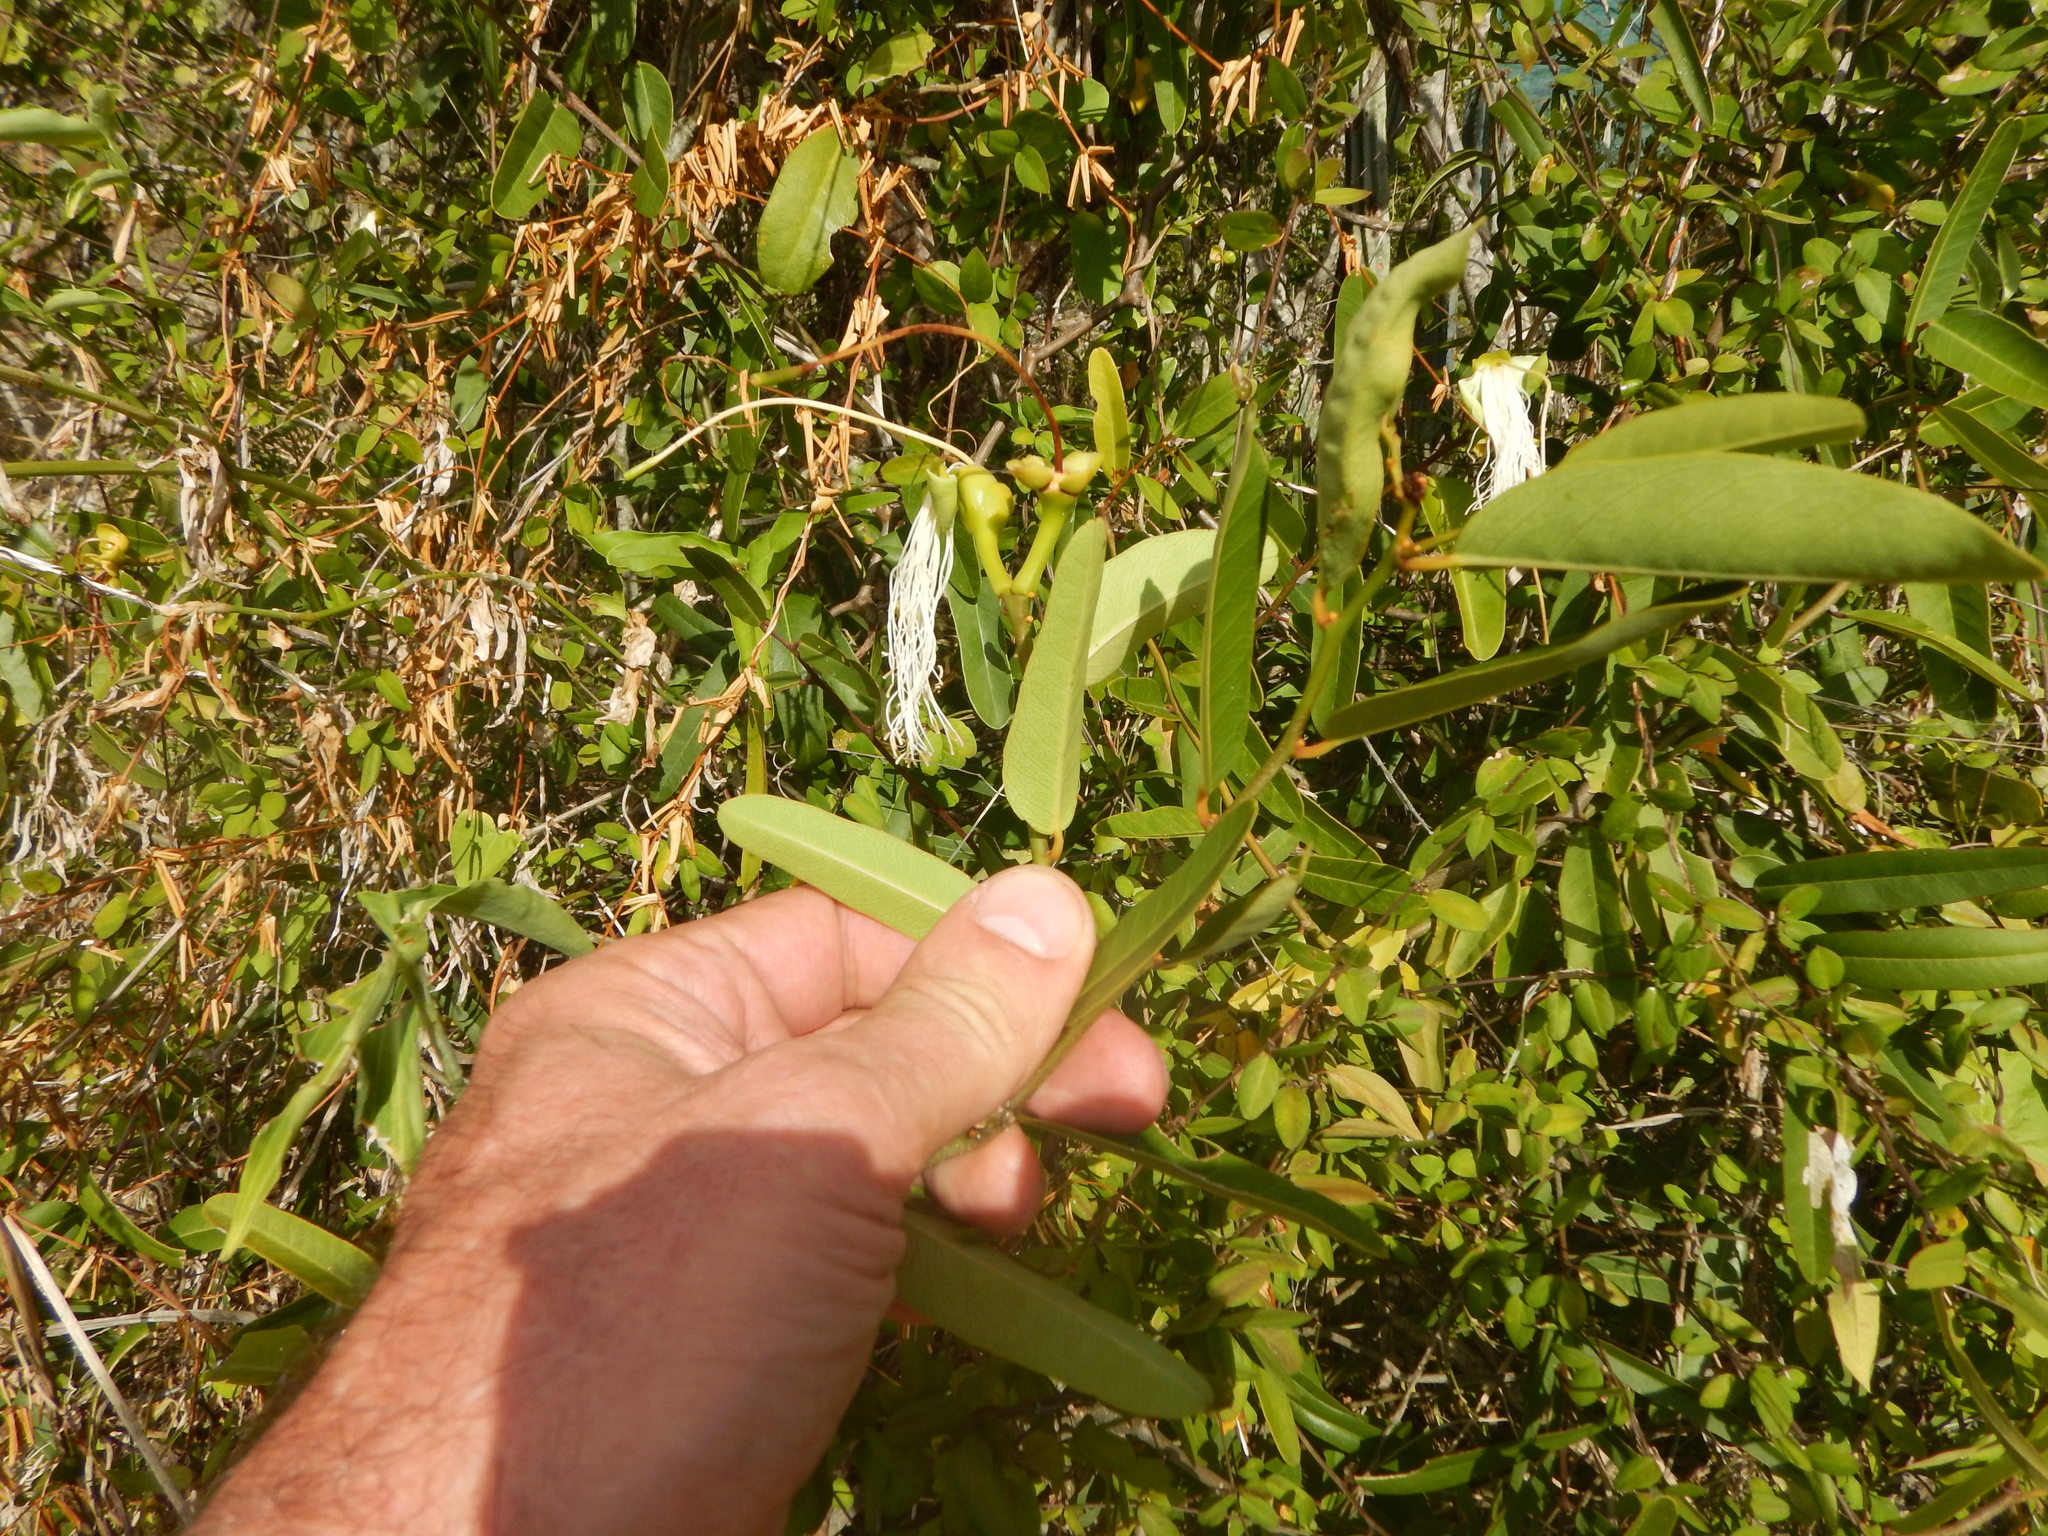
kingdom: Plantae
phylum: Tracheophyta
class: Magnoliopsida
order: Brassicales
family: Capparaceae
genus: Cynophalla
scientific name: Cynophalla flexuosa
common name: Capertree
